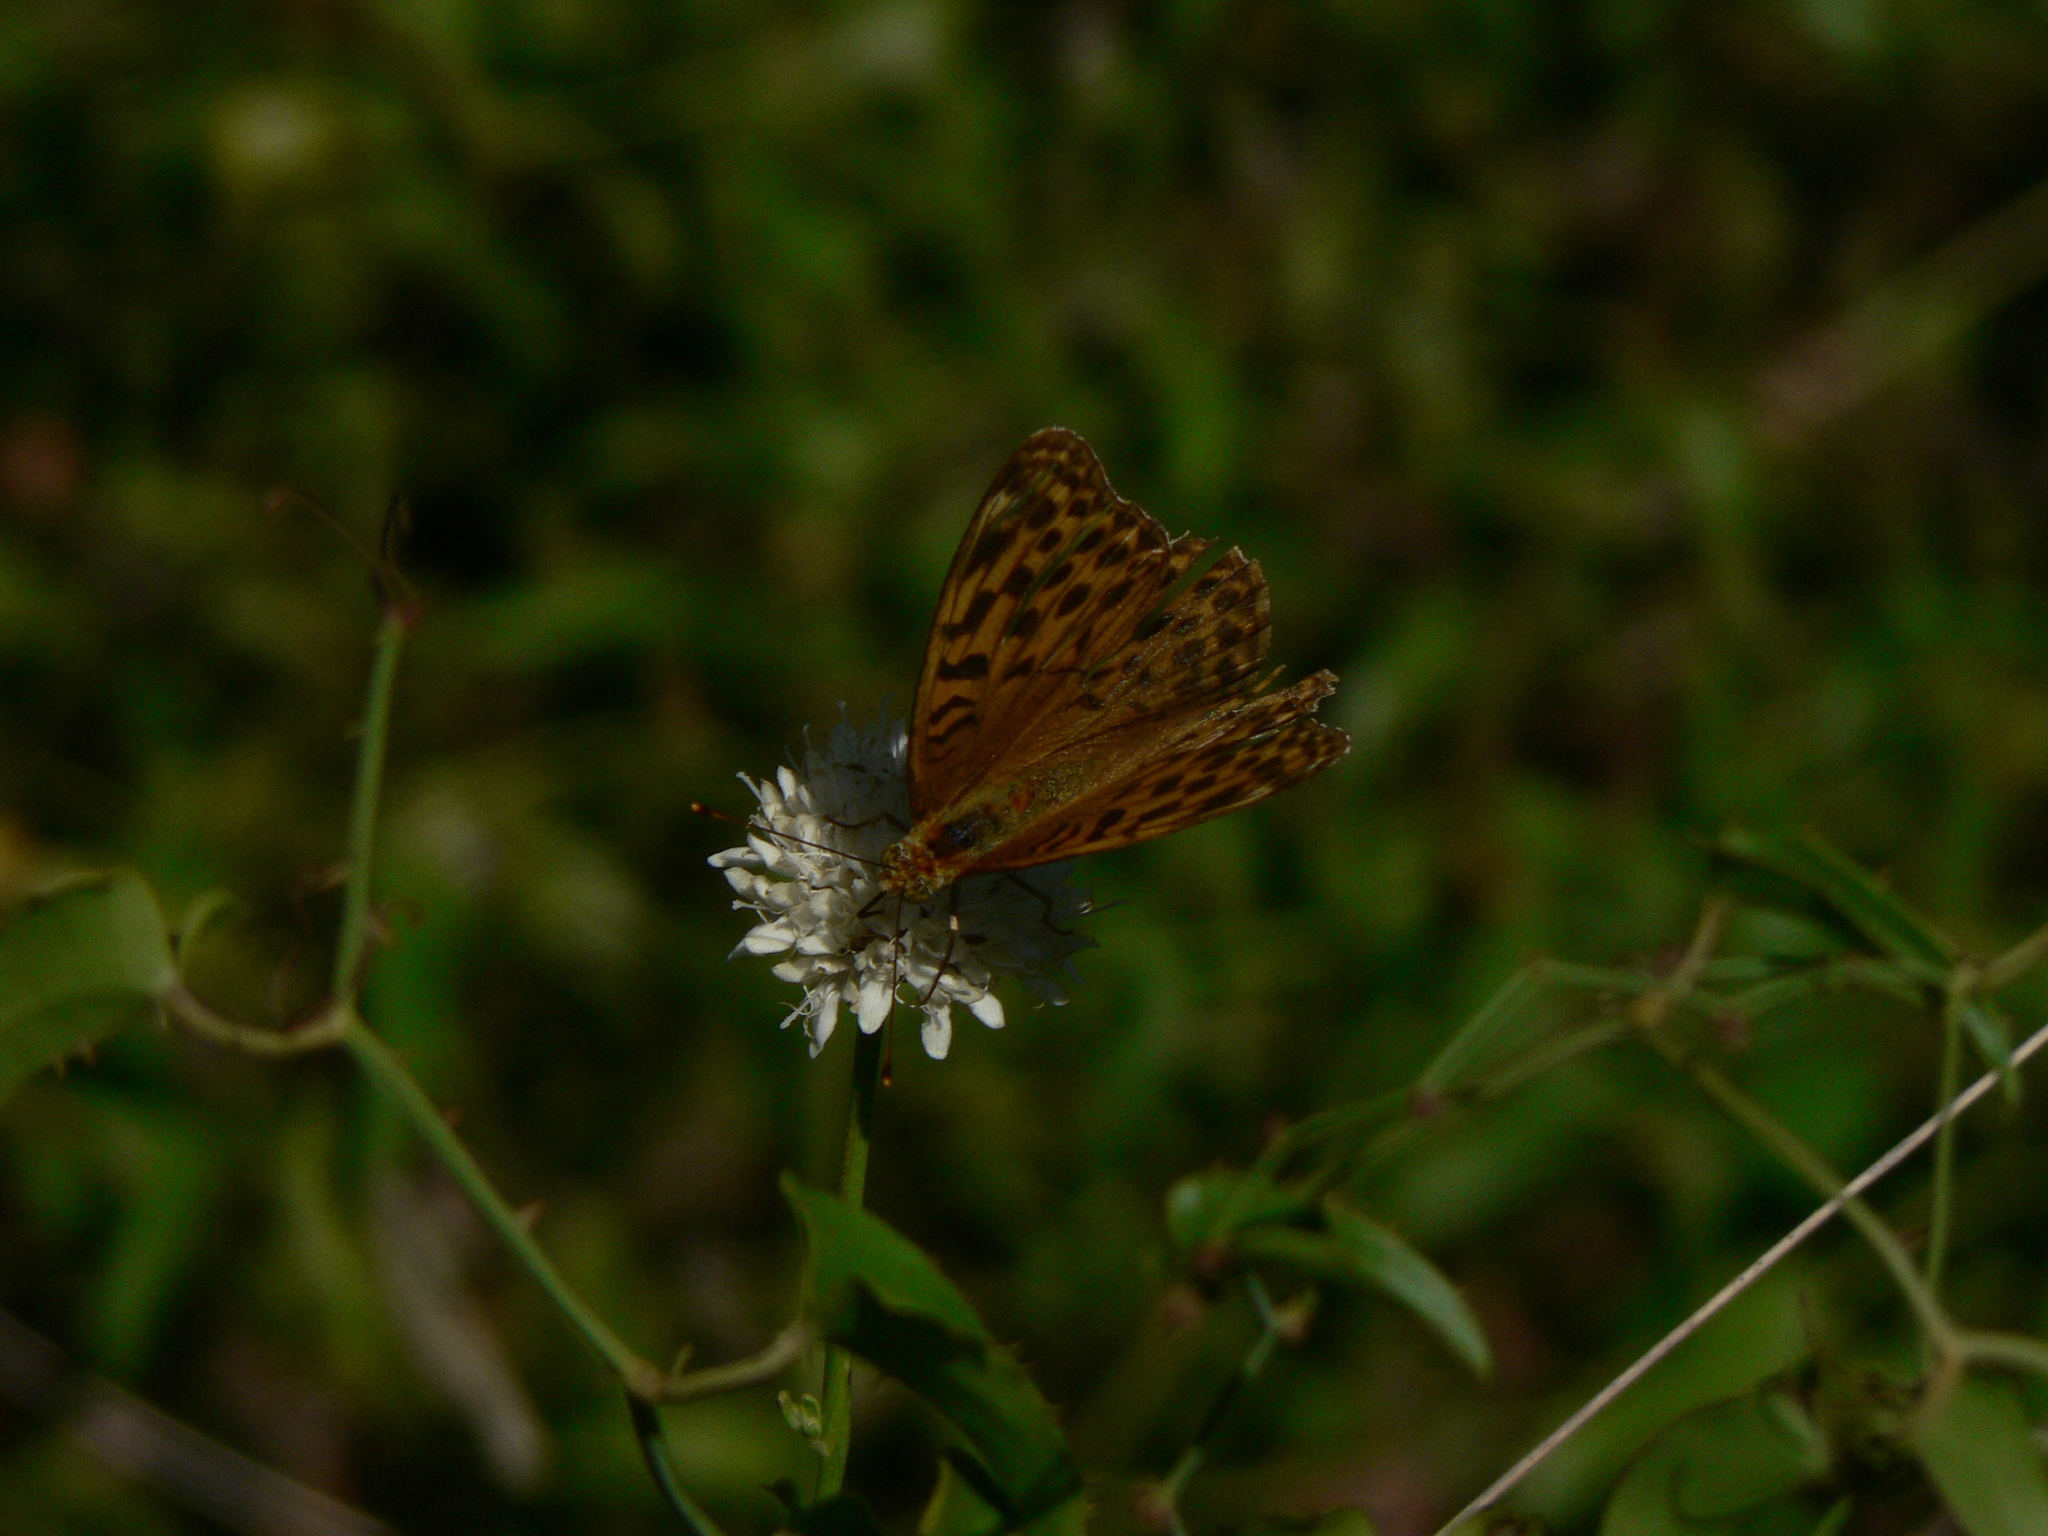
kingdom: Animalia
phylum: Arthropoda
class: Insecta
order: Lepidoptera
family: Nymphalidae
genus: Argynnis
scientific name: Argynnis paphia
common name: Silver-washed fritillary
